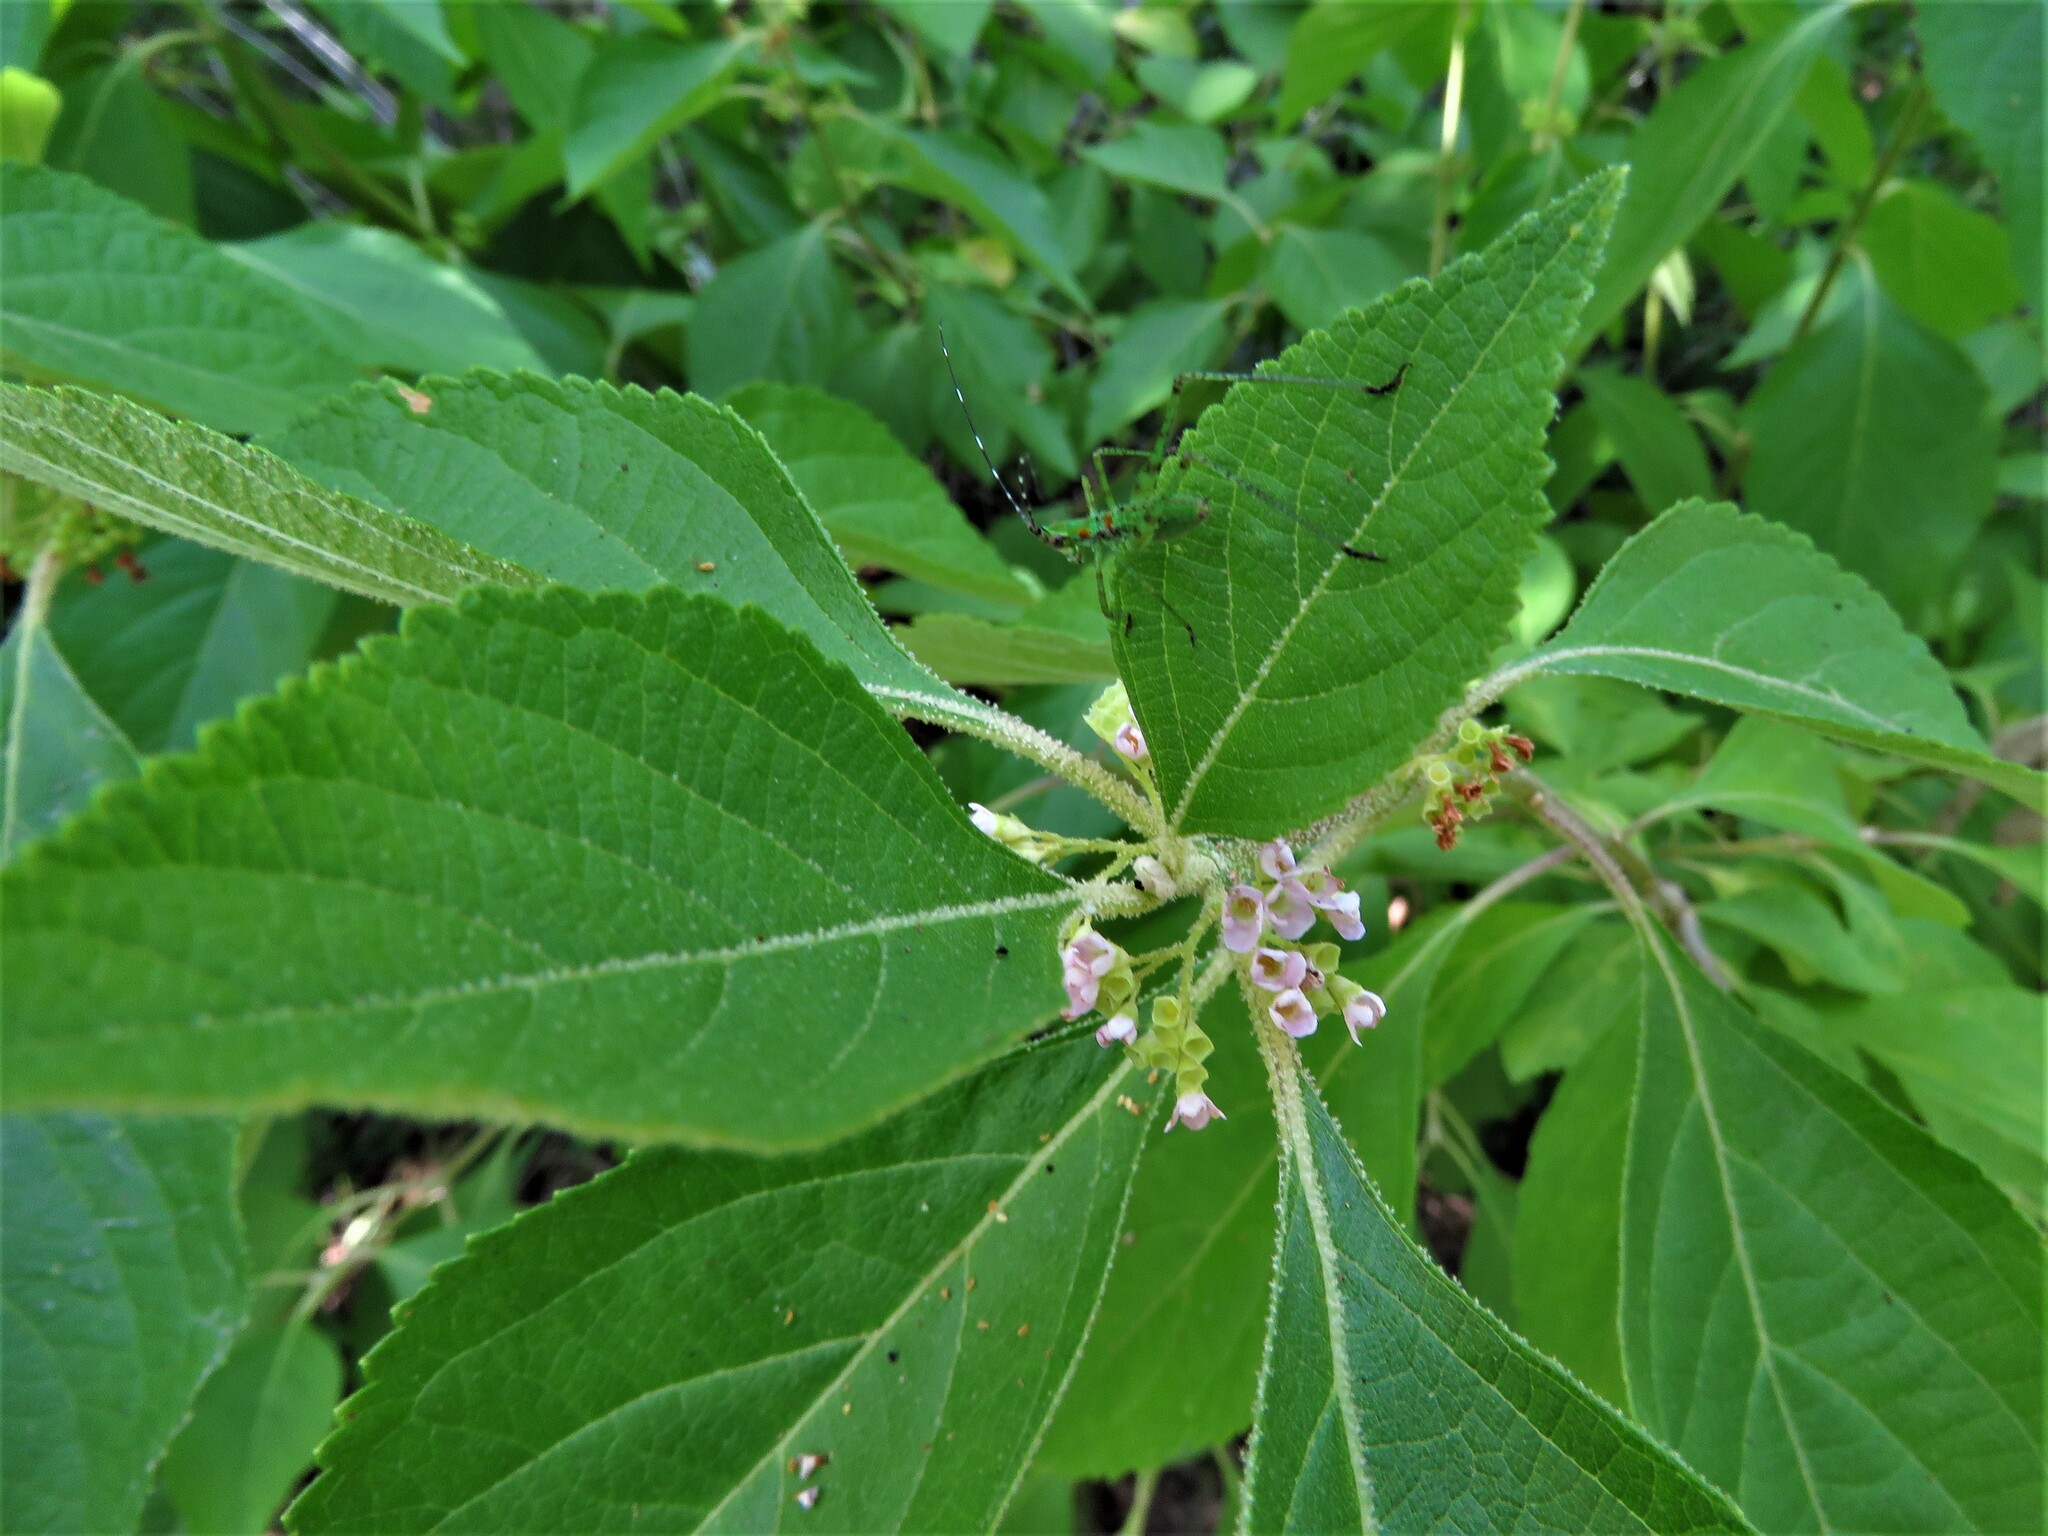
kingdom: Plantae
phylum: Tracheophyta
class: Magnoliopsida
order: Lamiales
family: Lamiaceae
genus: Callicarpa
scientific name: Callicarpa americana
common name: American beautyberry
